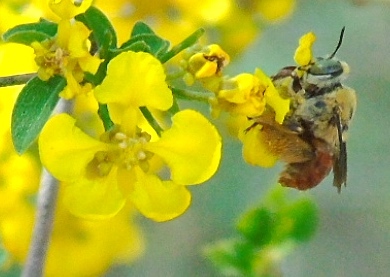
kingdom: Animalia
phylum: Arthropoda
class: Insecta
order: Hymenoptera
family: Apidae
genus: Centris
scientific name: Centris eurypatana
